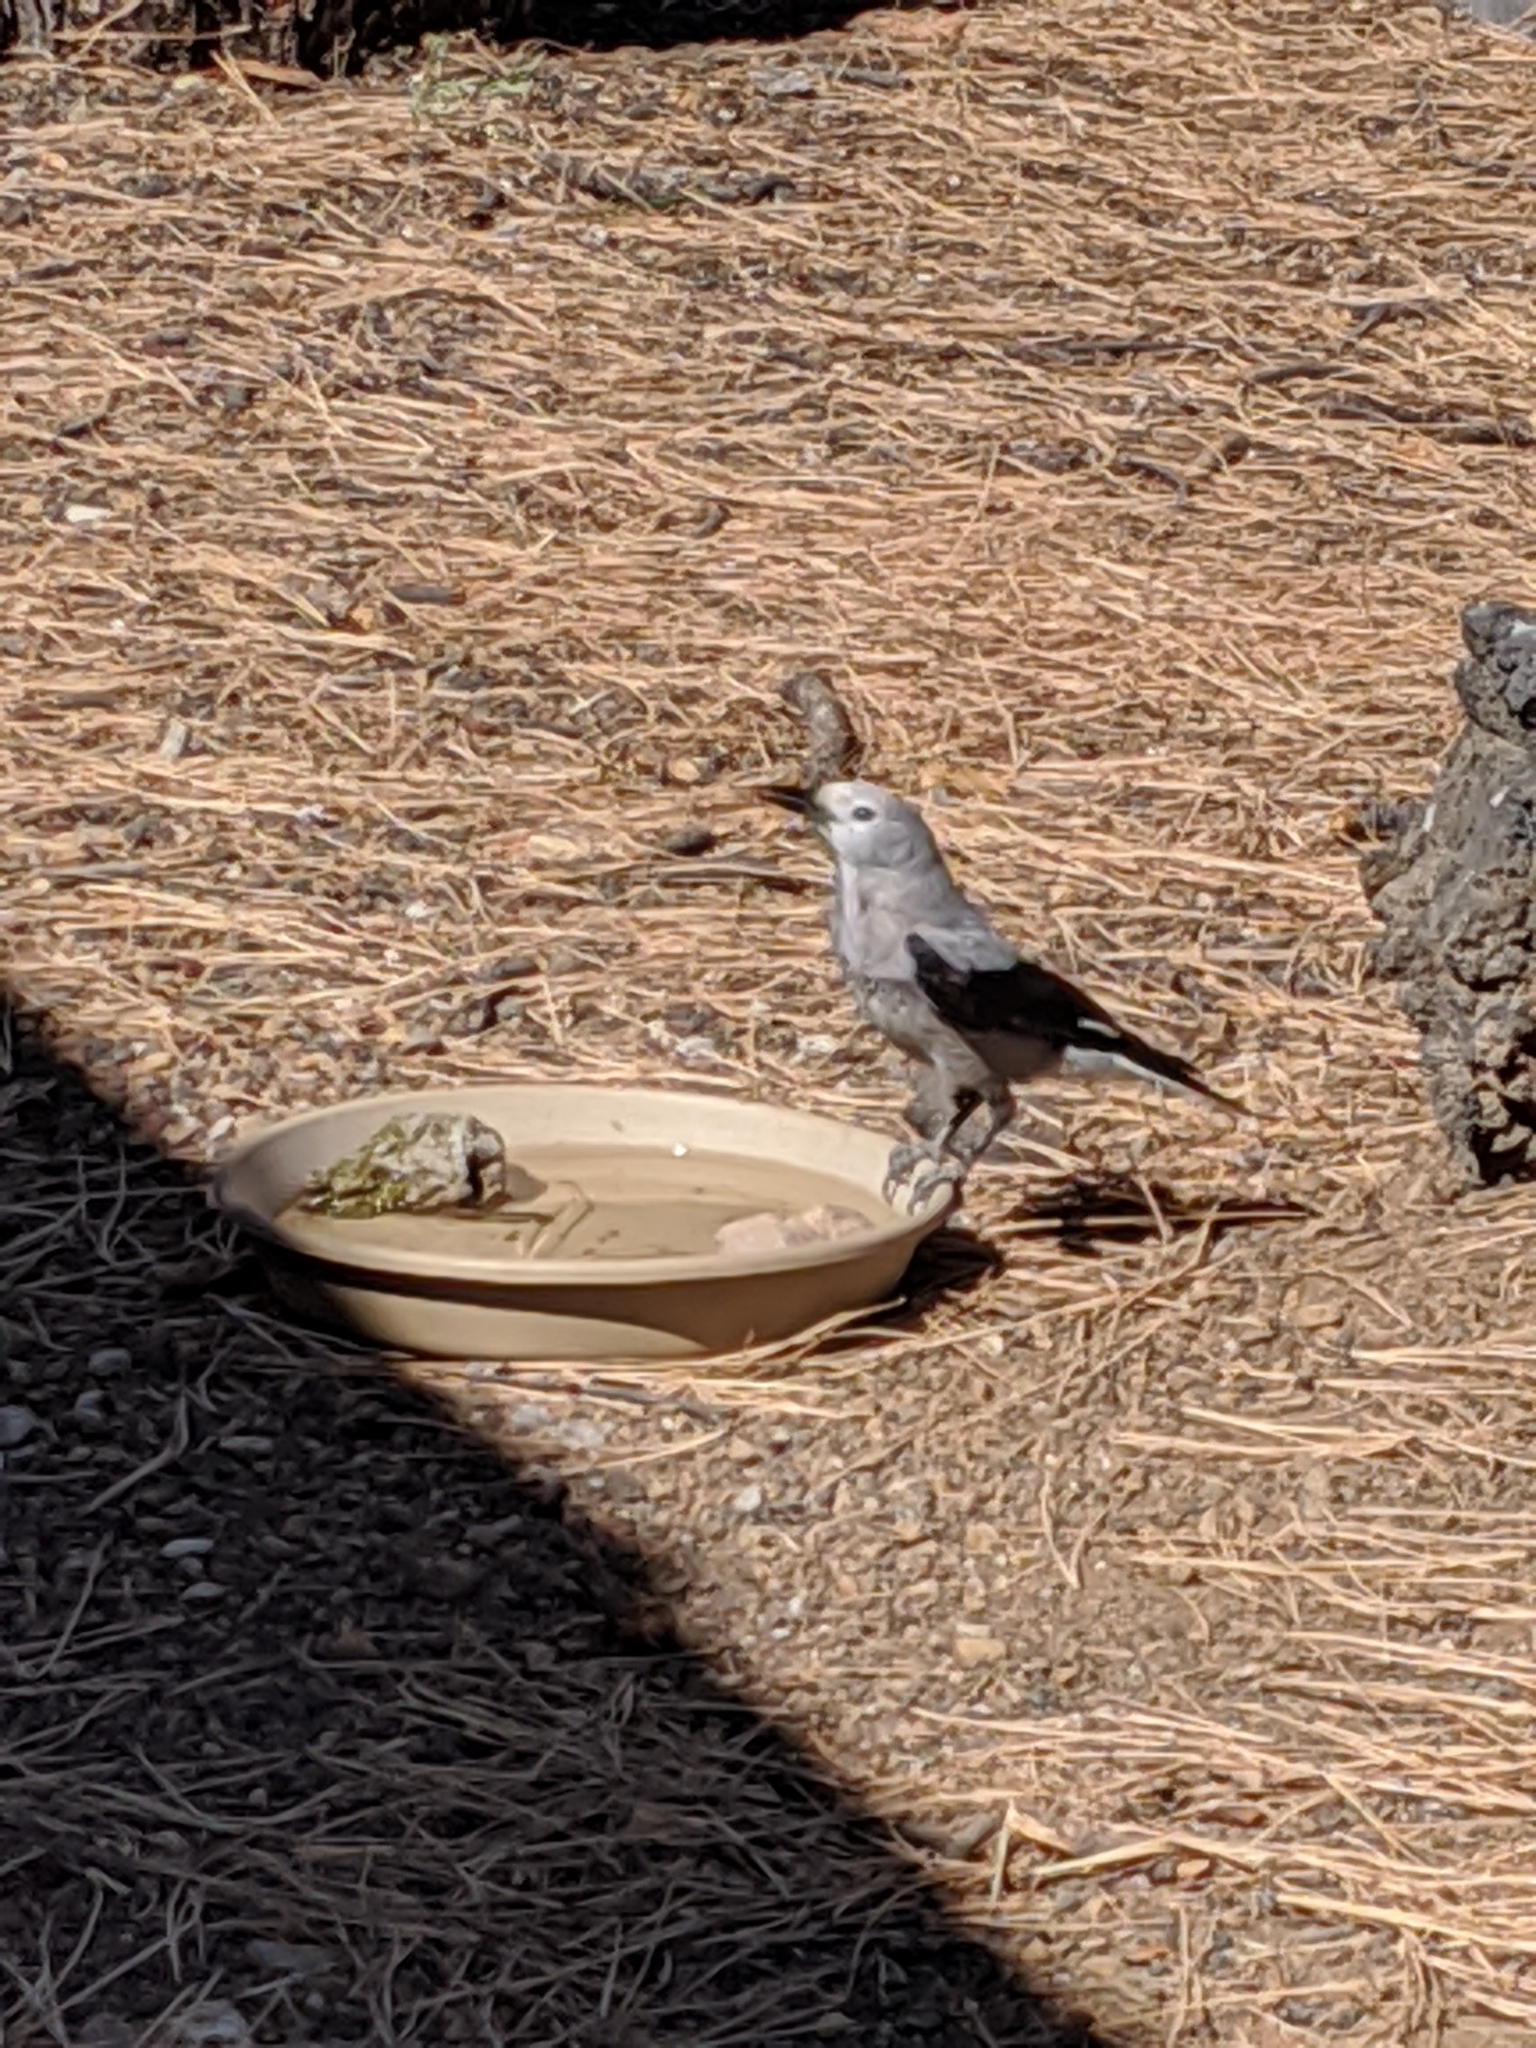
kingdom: Animalia
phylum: Chordata
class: Aves
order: Passeriformes
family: Corvidae
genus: Nucifraga
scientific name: Nucifraga columbiana
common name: Clark's nutcracker
